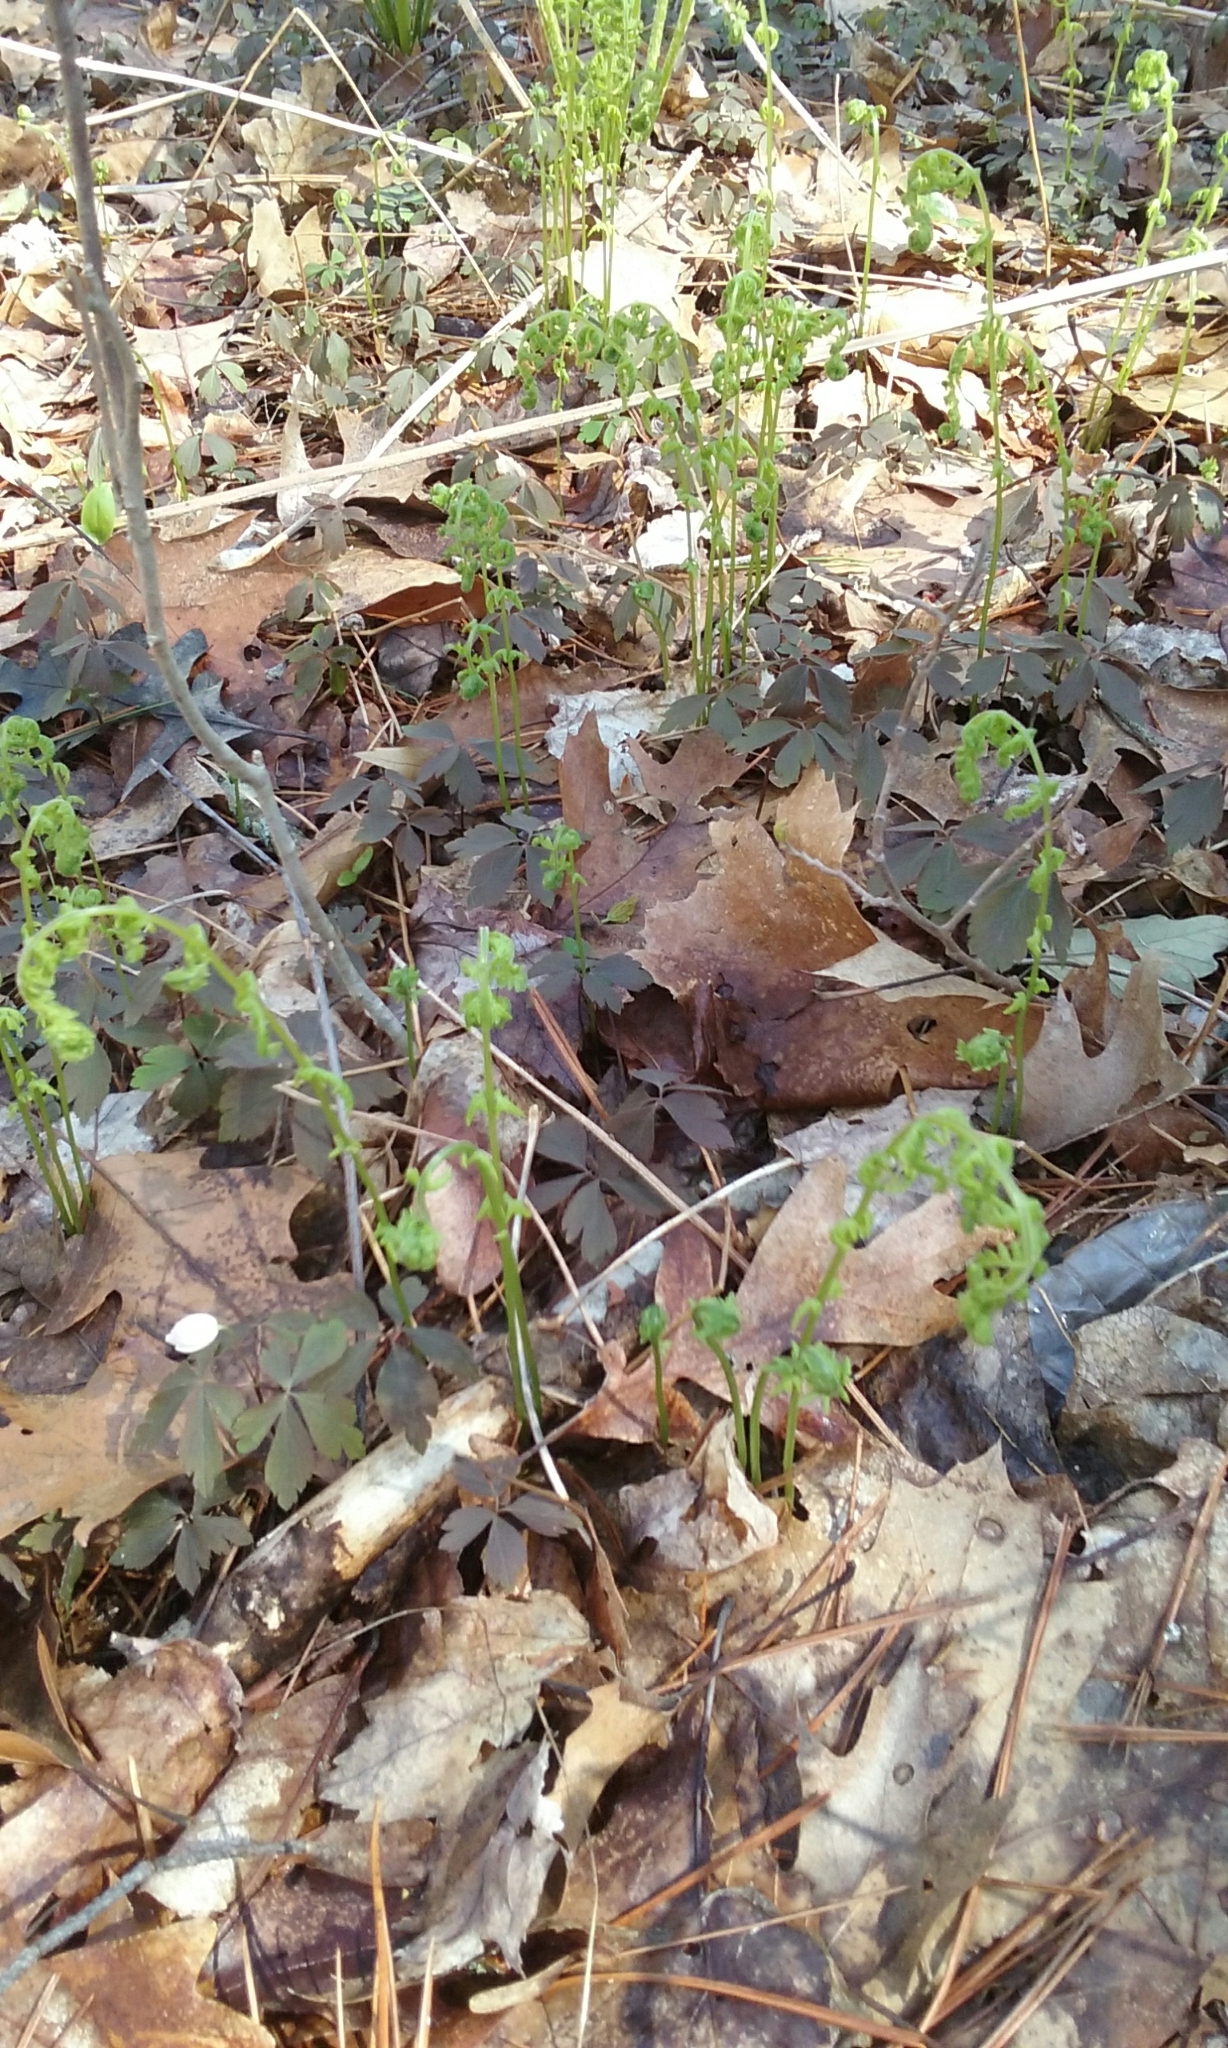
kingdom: Plantae
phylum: Tracheophyta
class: Polypodiopsida
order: Polypodiales
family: Thelypteridaceae
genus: Amauropelta
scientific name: Amauropelta noveboracensis
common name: New york fern
